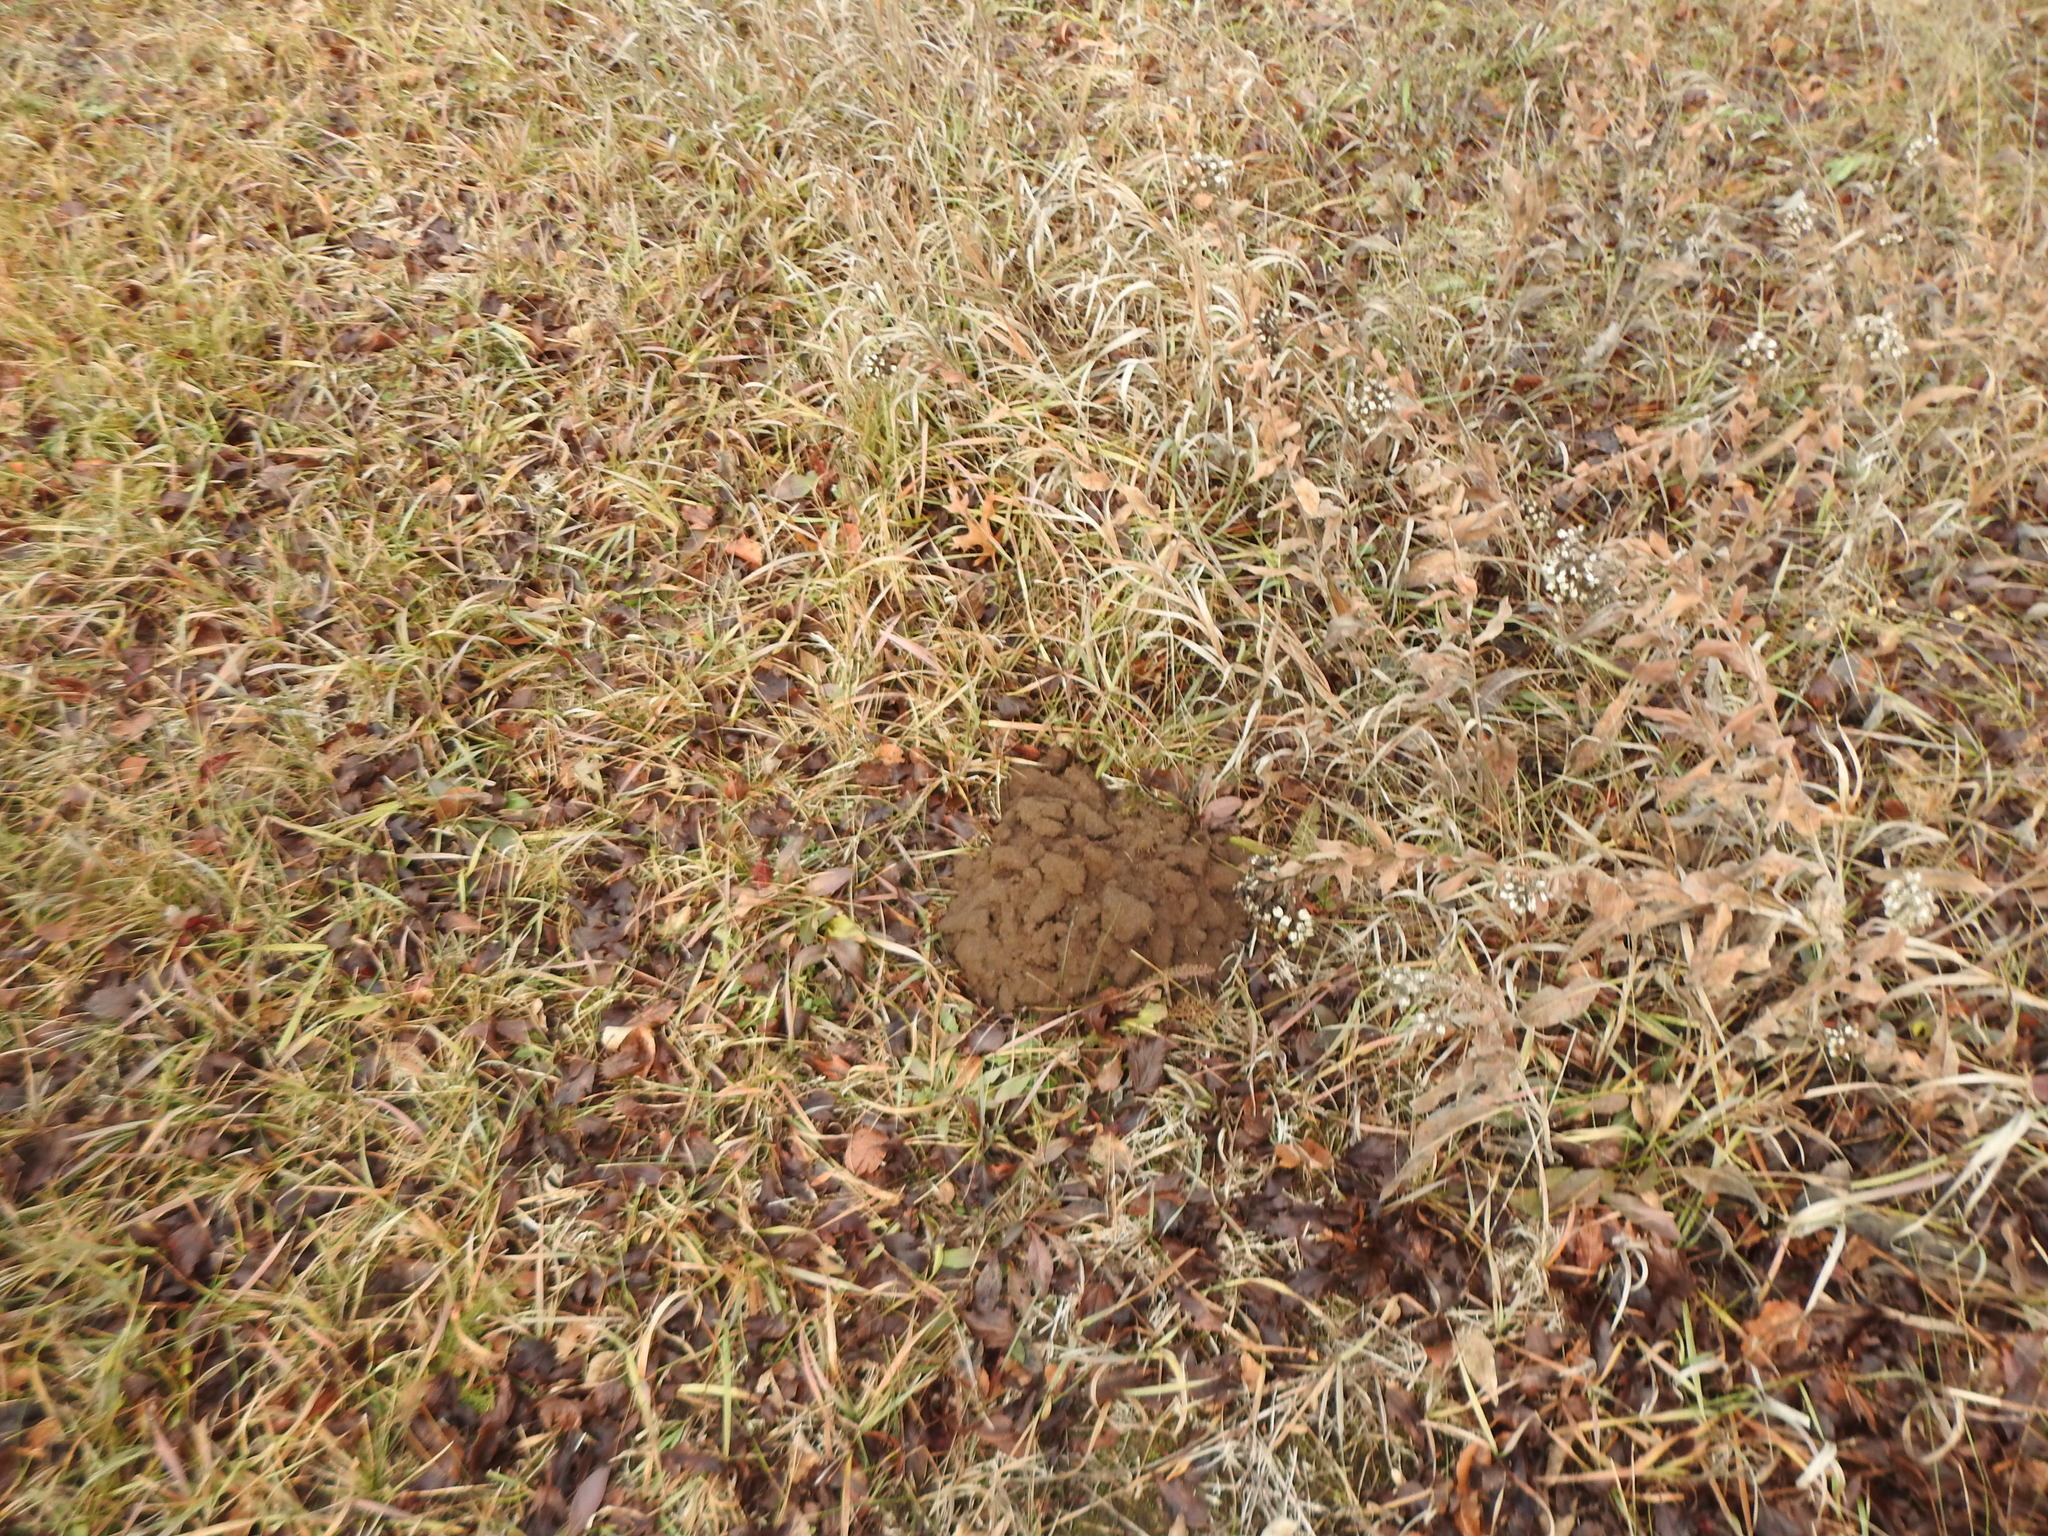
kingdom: Animalia
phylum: Chordata
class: Mammalia
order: Rodentia
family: Geomyidae
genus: Geomys
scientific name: Geomys bursarius
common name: Plains pocket gopher
